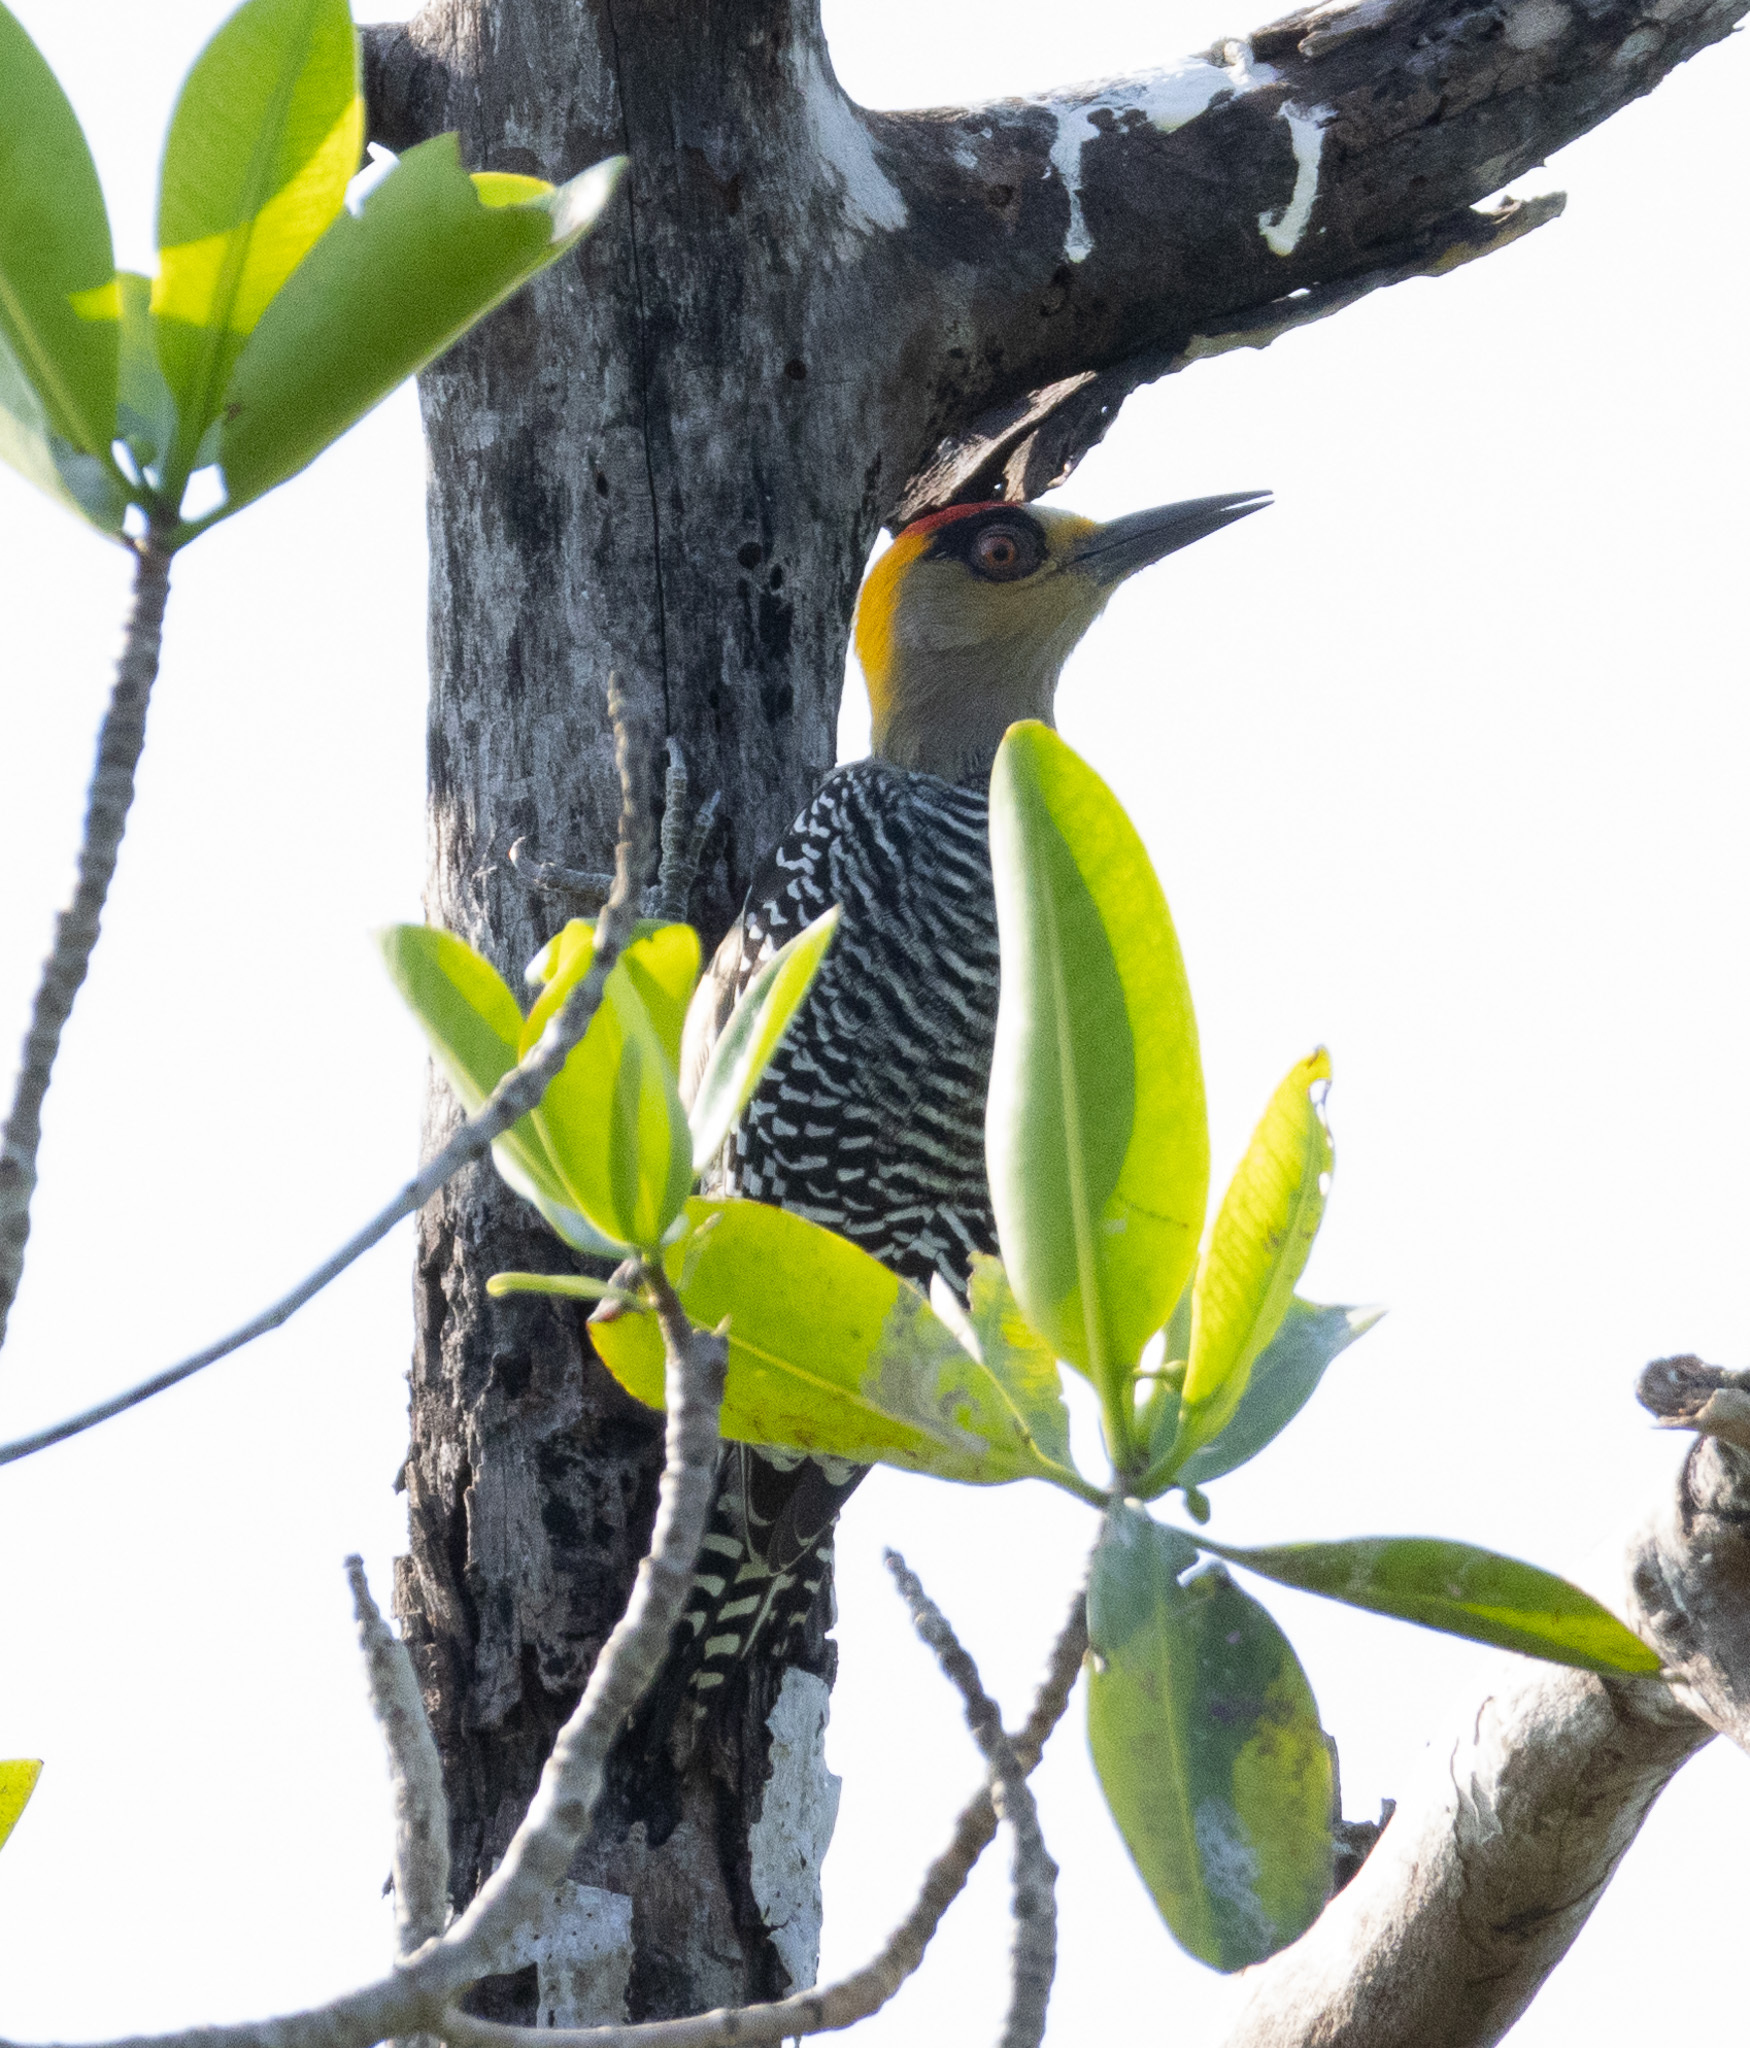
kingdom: Animalia
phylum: Chordata
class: Aves
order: Piciformes
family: Picidae
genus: Melanerpes
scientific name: Melanerpes chrysogenys
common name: Golden-cheeked woodpecker
